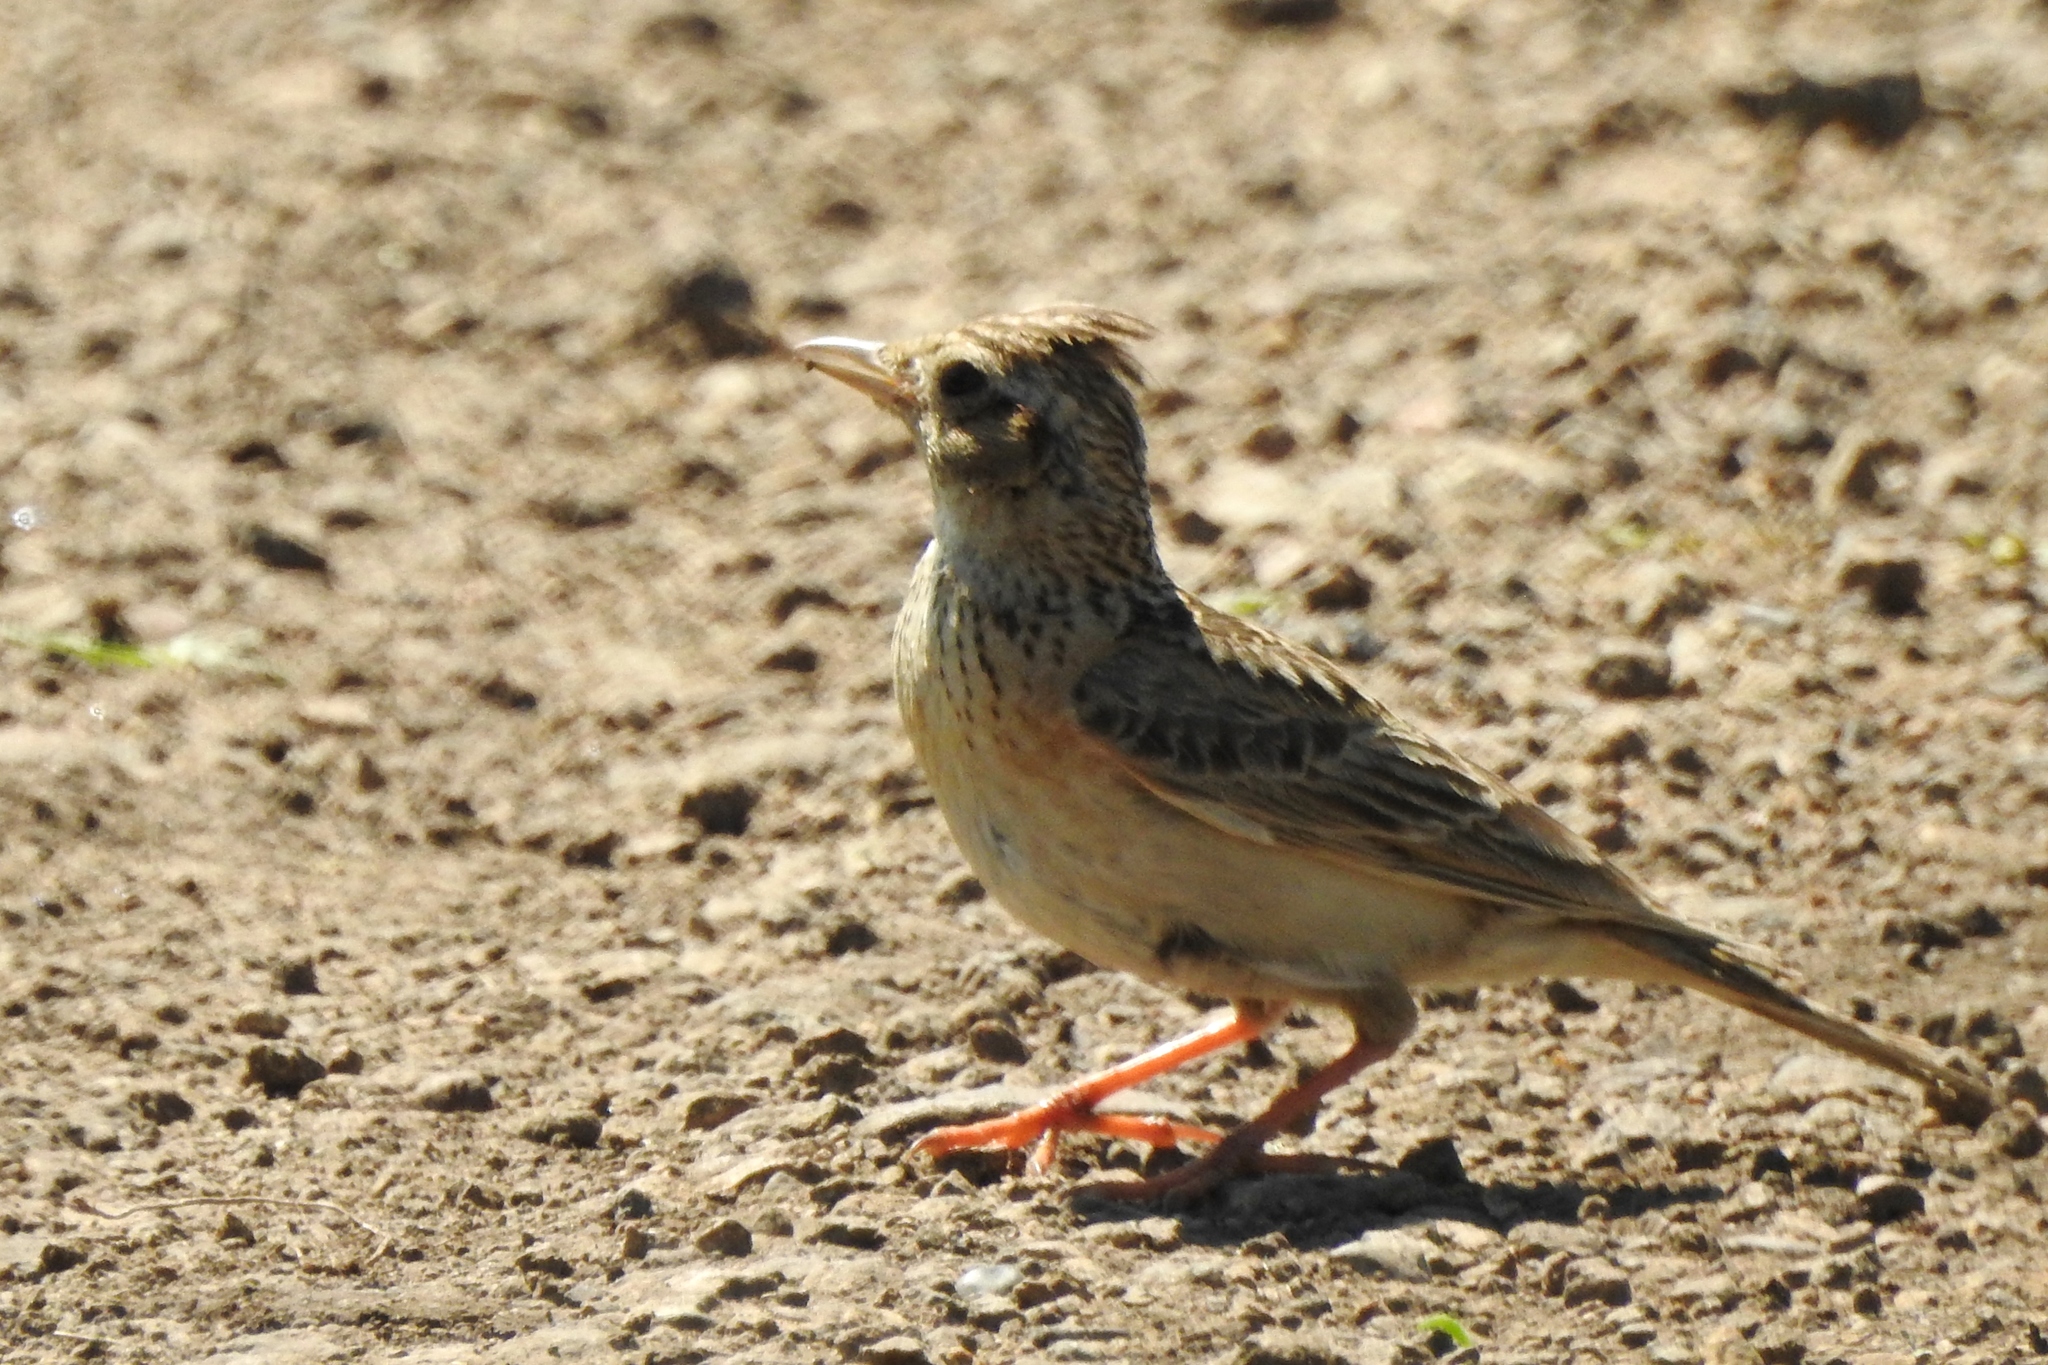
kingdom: Animalia
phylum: Chordata
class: Aves
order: Passeriformes
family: Alaudidae
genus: Alauda
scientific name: Alauda arvensis
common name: Eurasian skylark
